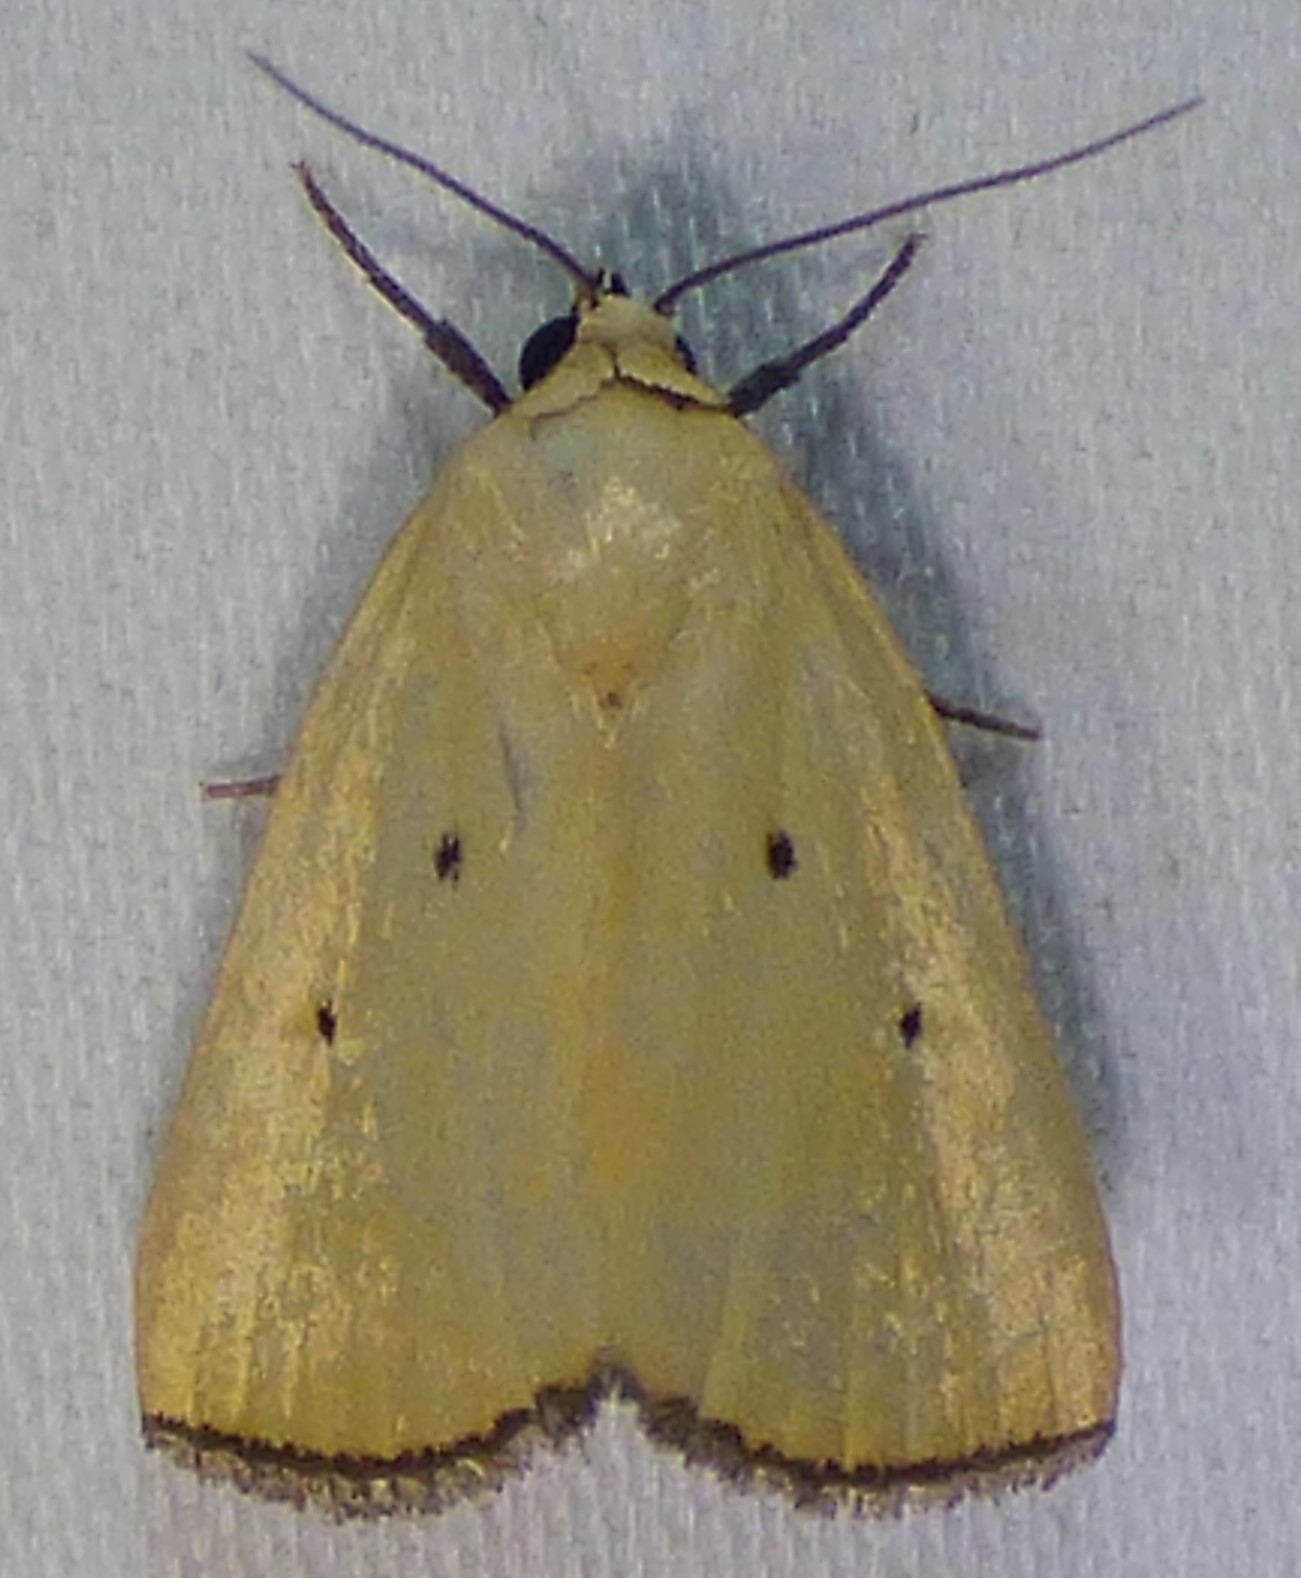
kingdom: Animalia
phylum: Arthropoda
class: Insecta
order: Lepidoptera
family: Noctuidae
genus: Marimatha
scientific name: Marimatha nigrofimbria
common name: Black-bordered lemon moth
